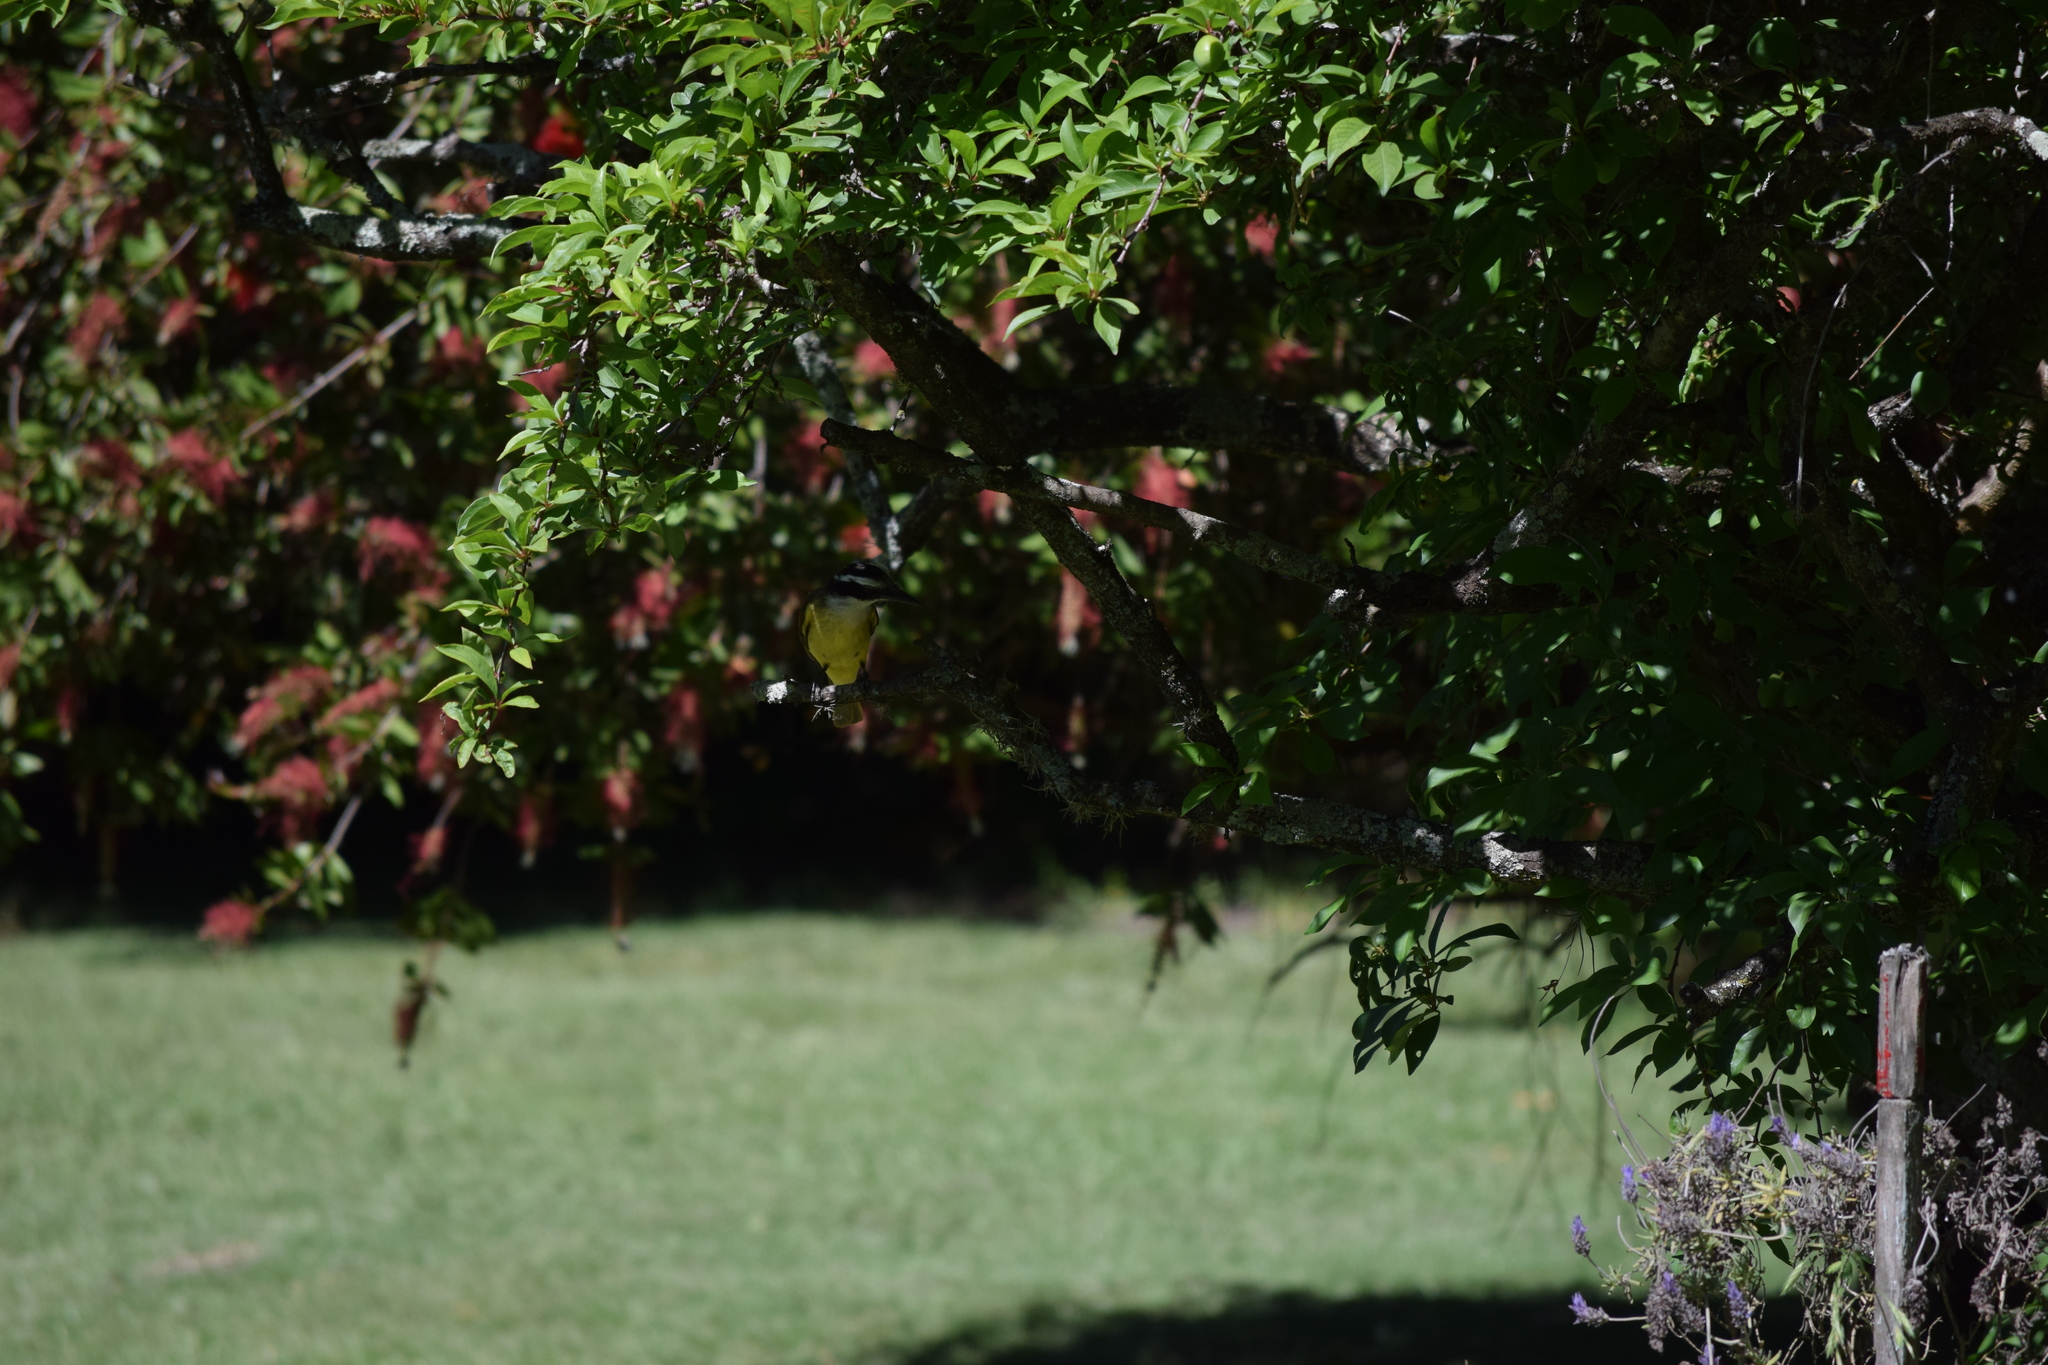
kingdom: Animalia
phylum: Chordata
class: Aves
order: Passeriformes
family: Tyrannidae
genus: Pitangus
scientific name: Pitangus sulphuratus
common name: Great kiskadee
